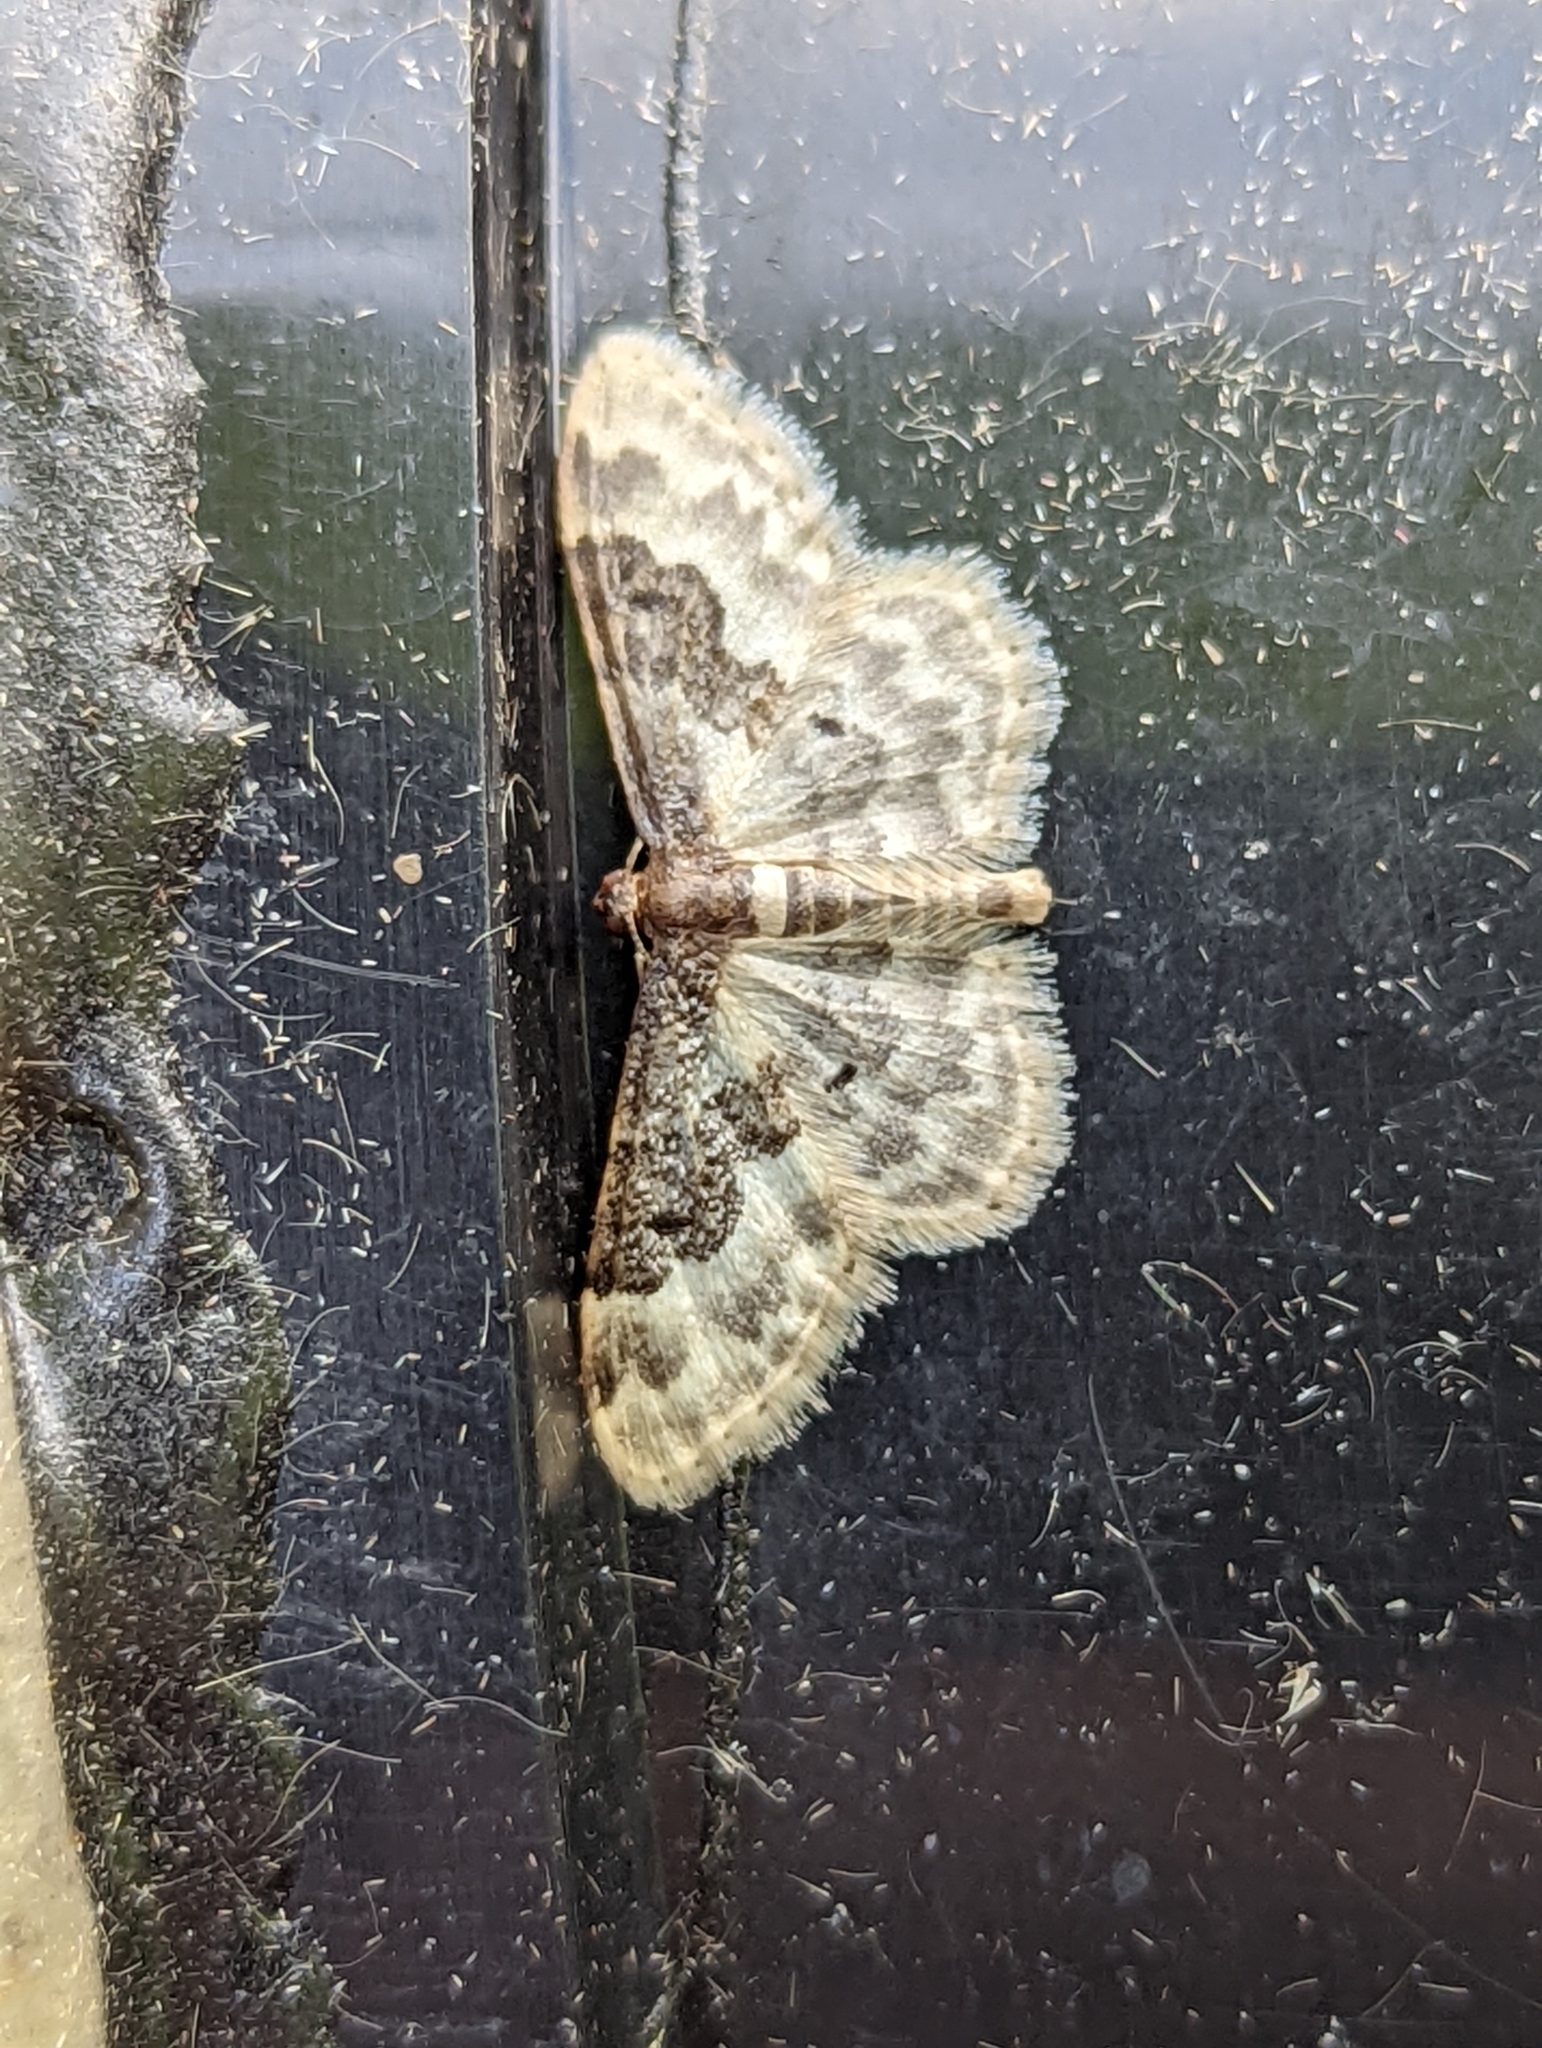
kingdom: Animalia
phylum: Arthropoda
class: Insecta
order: Lepidoptera
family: Geometridae
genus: Idaea
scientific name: Idaea rusticata
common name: Least carpet
